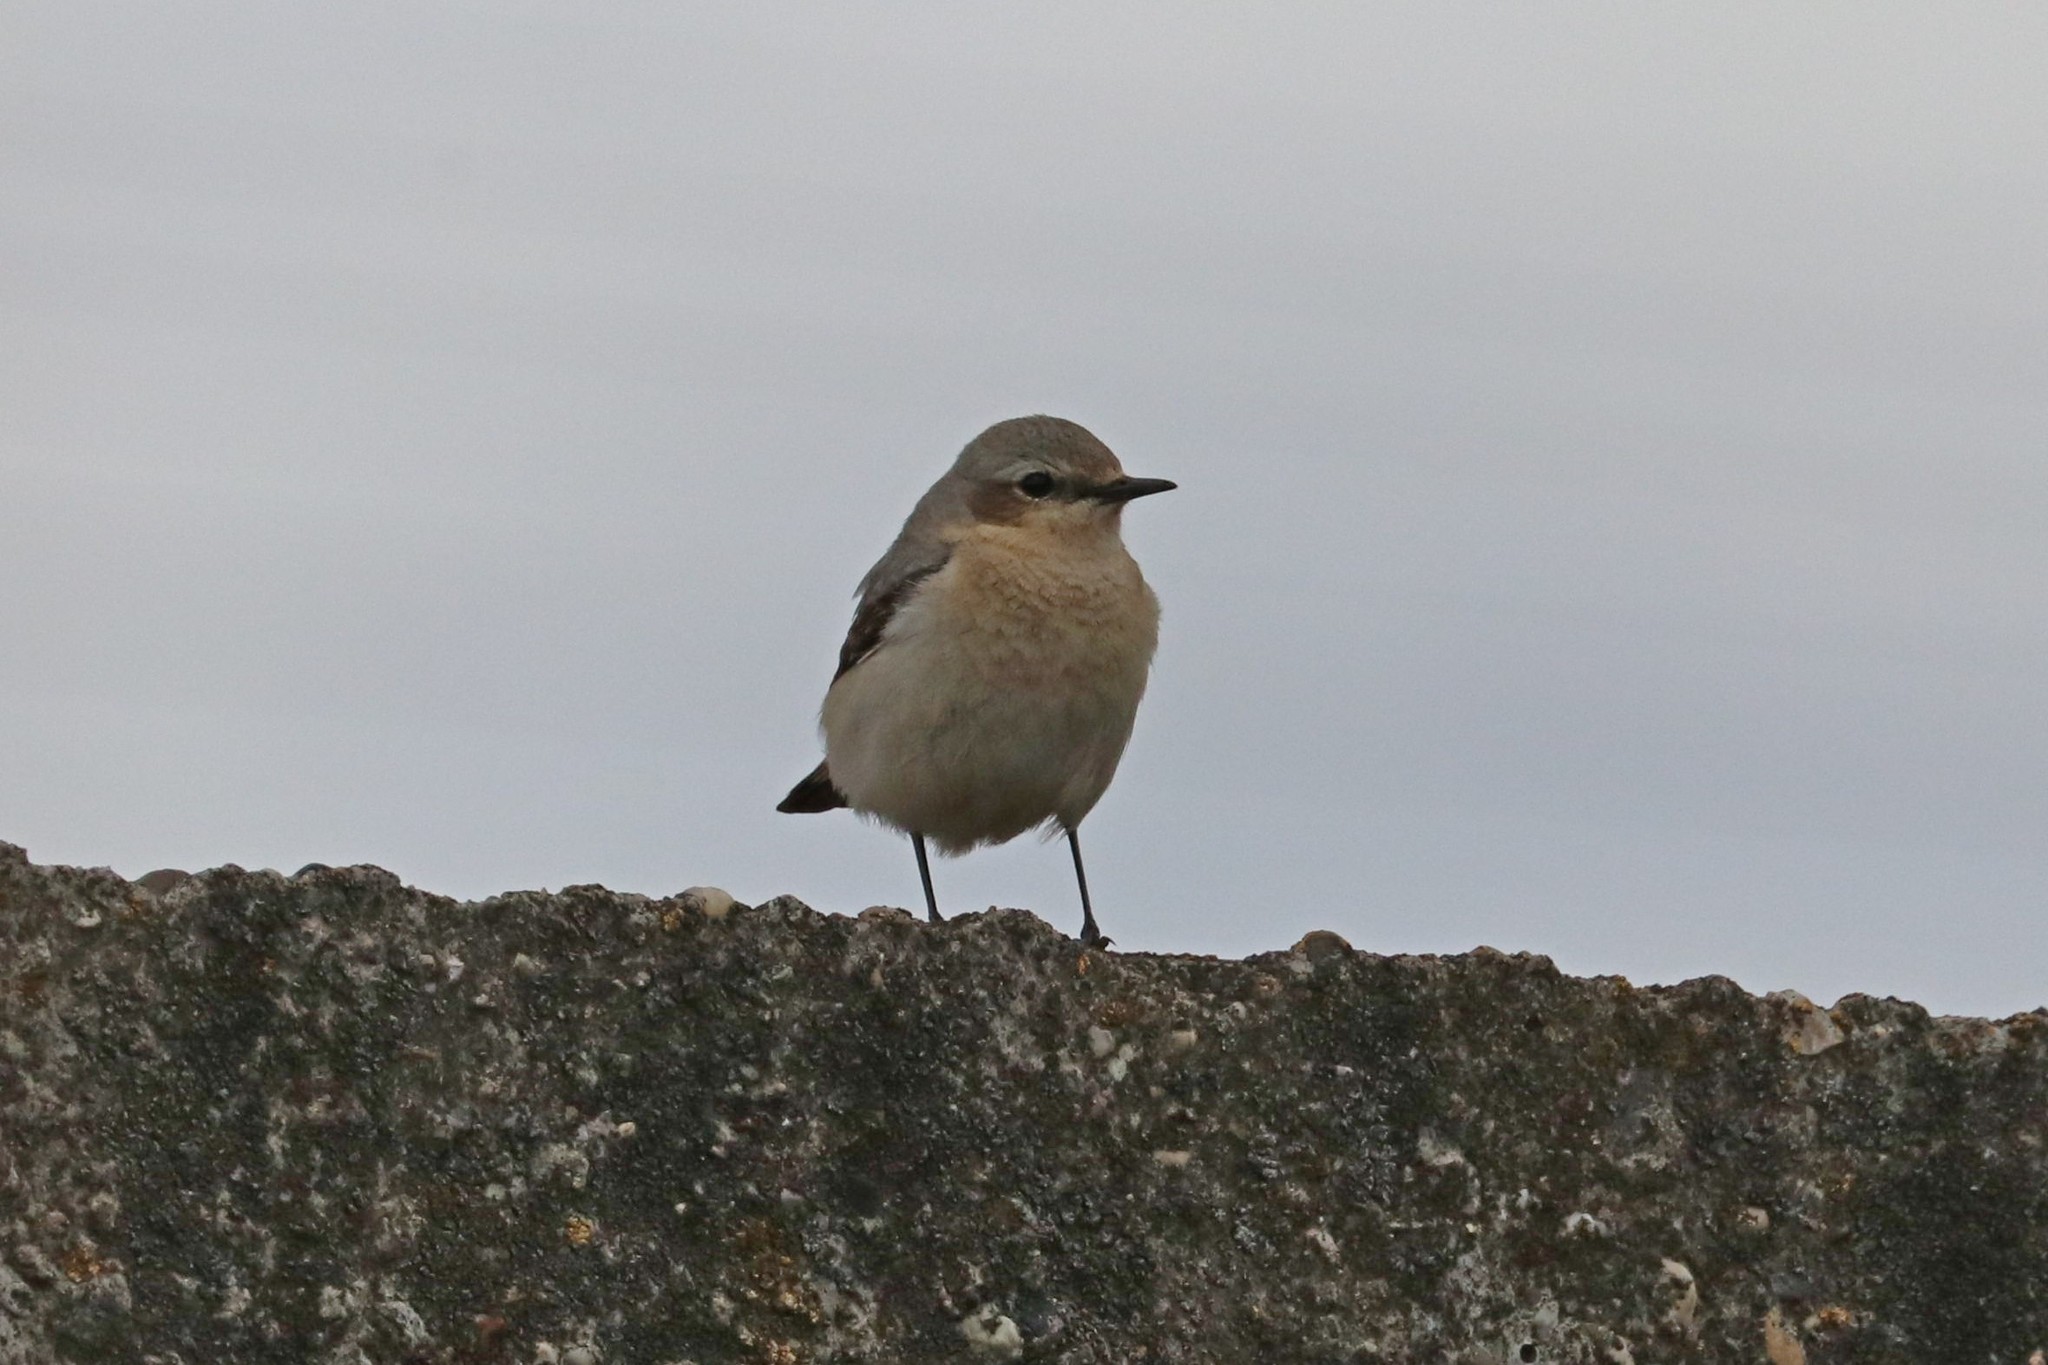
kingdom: Animalia
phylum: Chordata
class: Aves
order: Passeriformes
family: Muscicapidae
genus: Oenanthe
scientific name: Oenanthe oenanthe
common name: Northern wheatear
